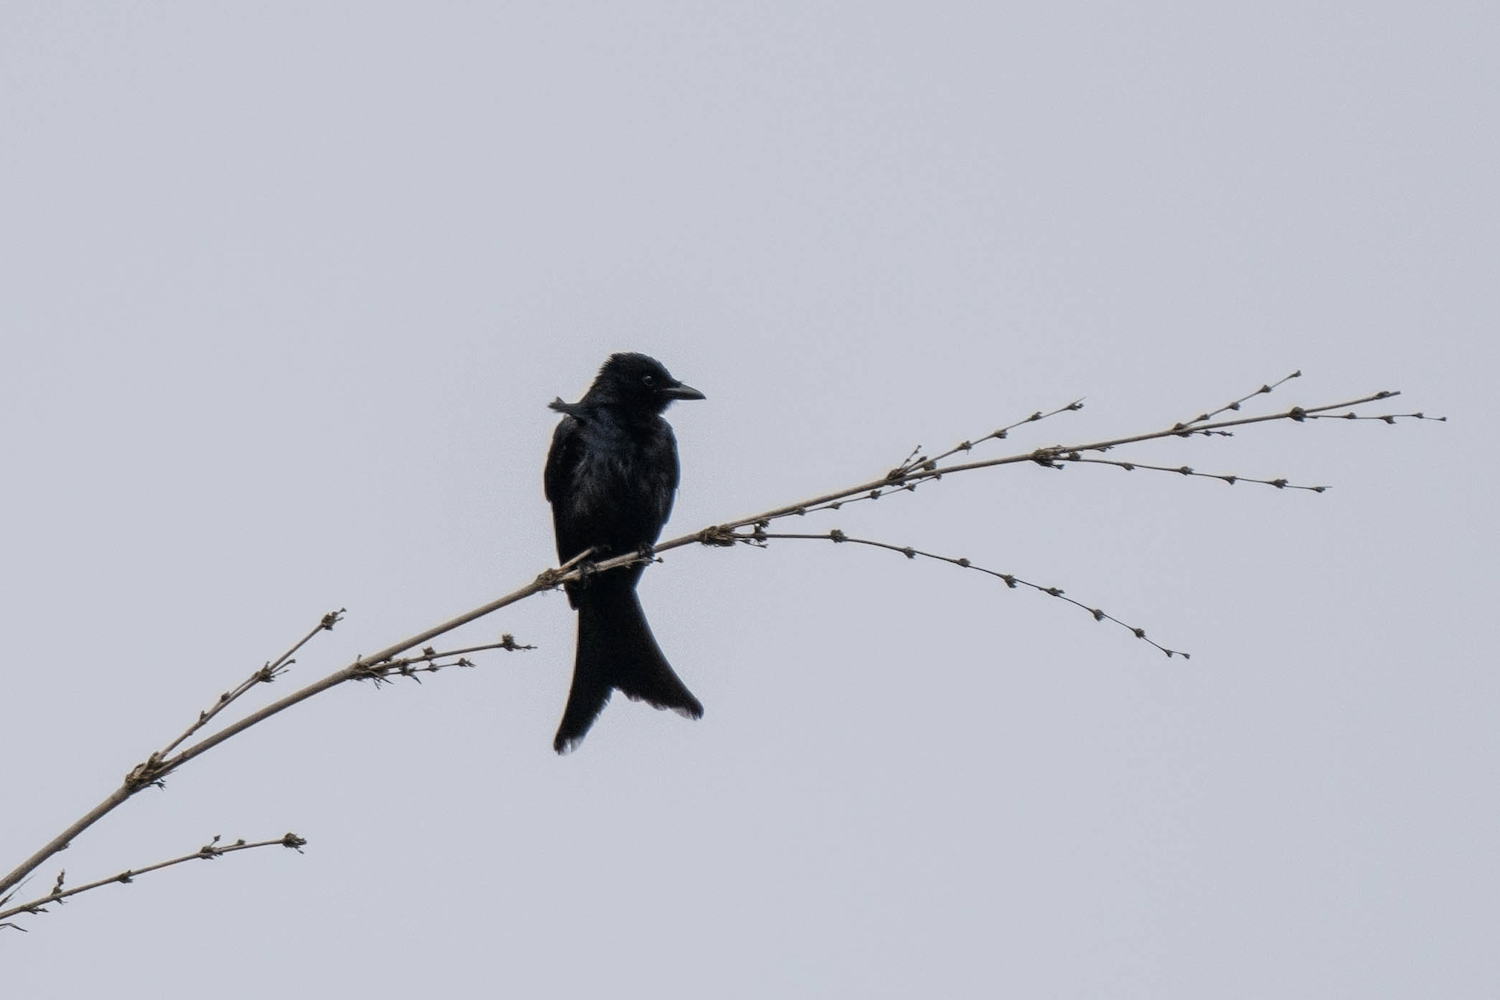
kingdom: Animalia
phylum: Chordata
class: Aves
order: Passeriformes
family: Dicruridae
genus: Dicrurus
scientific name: Dicrurus macrocercus
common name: Black drongo
